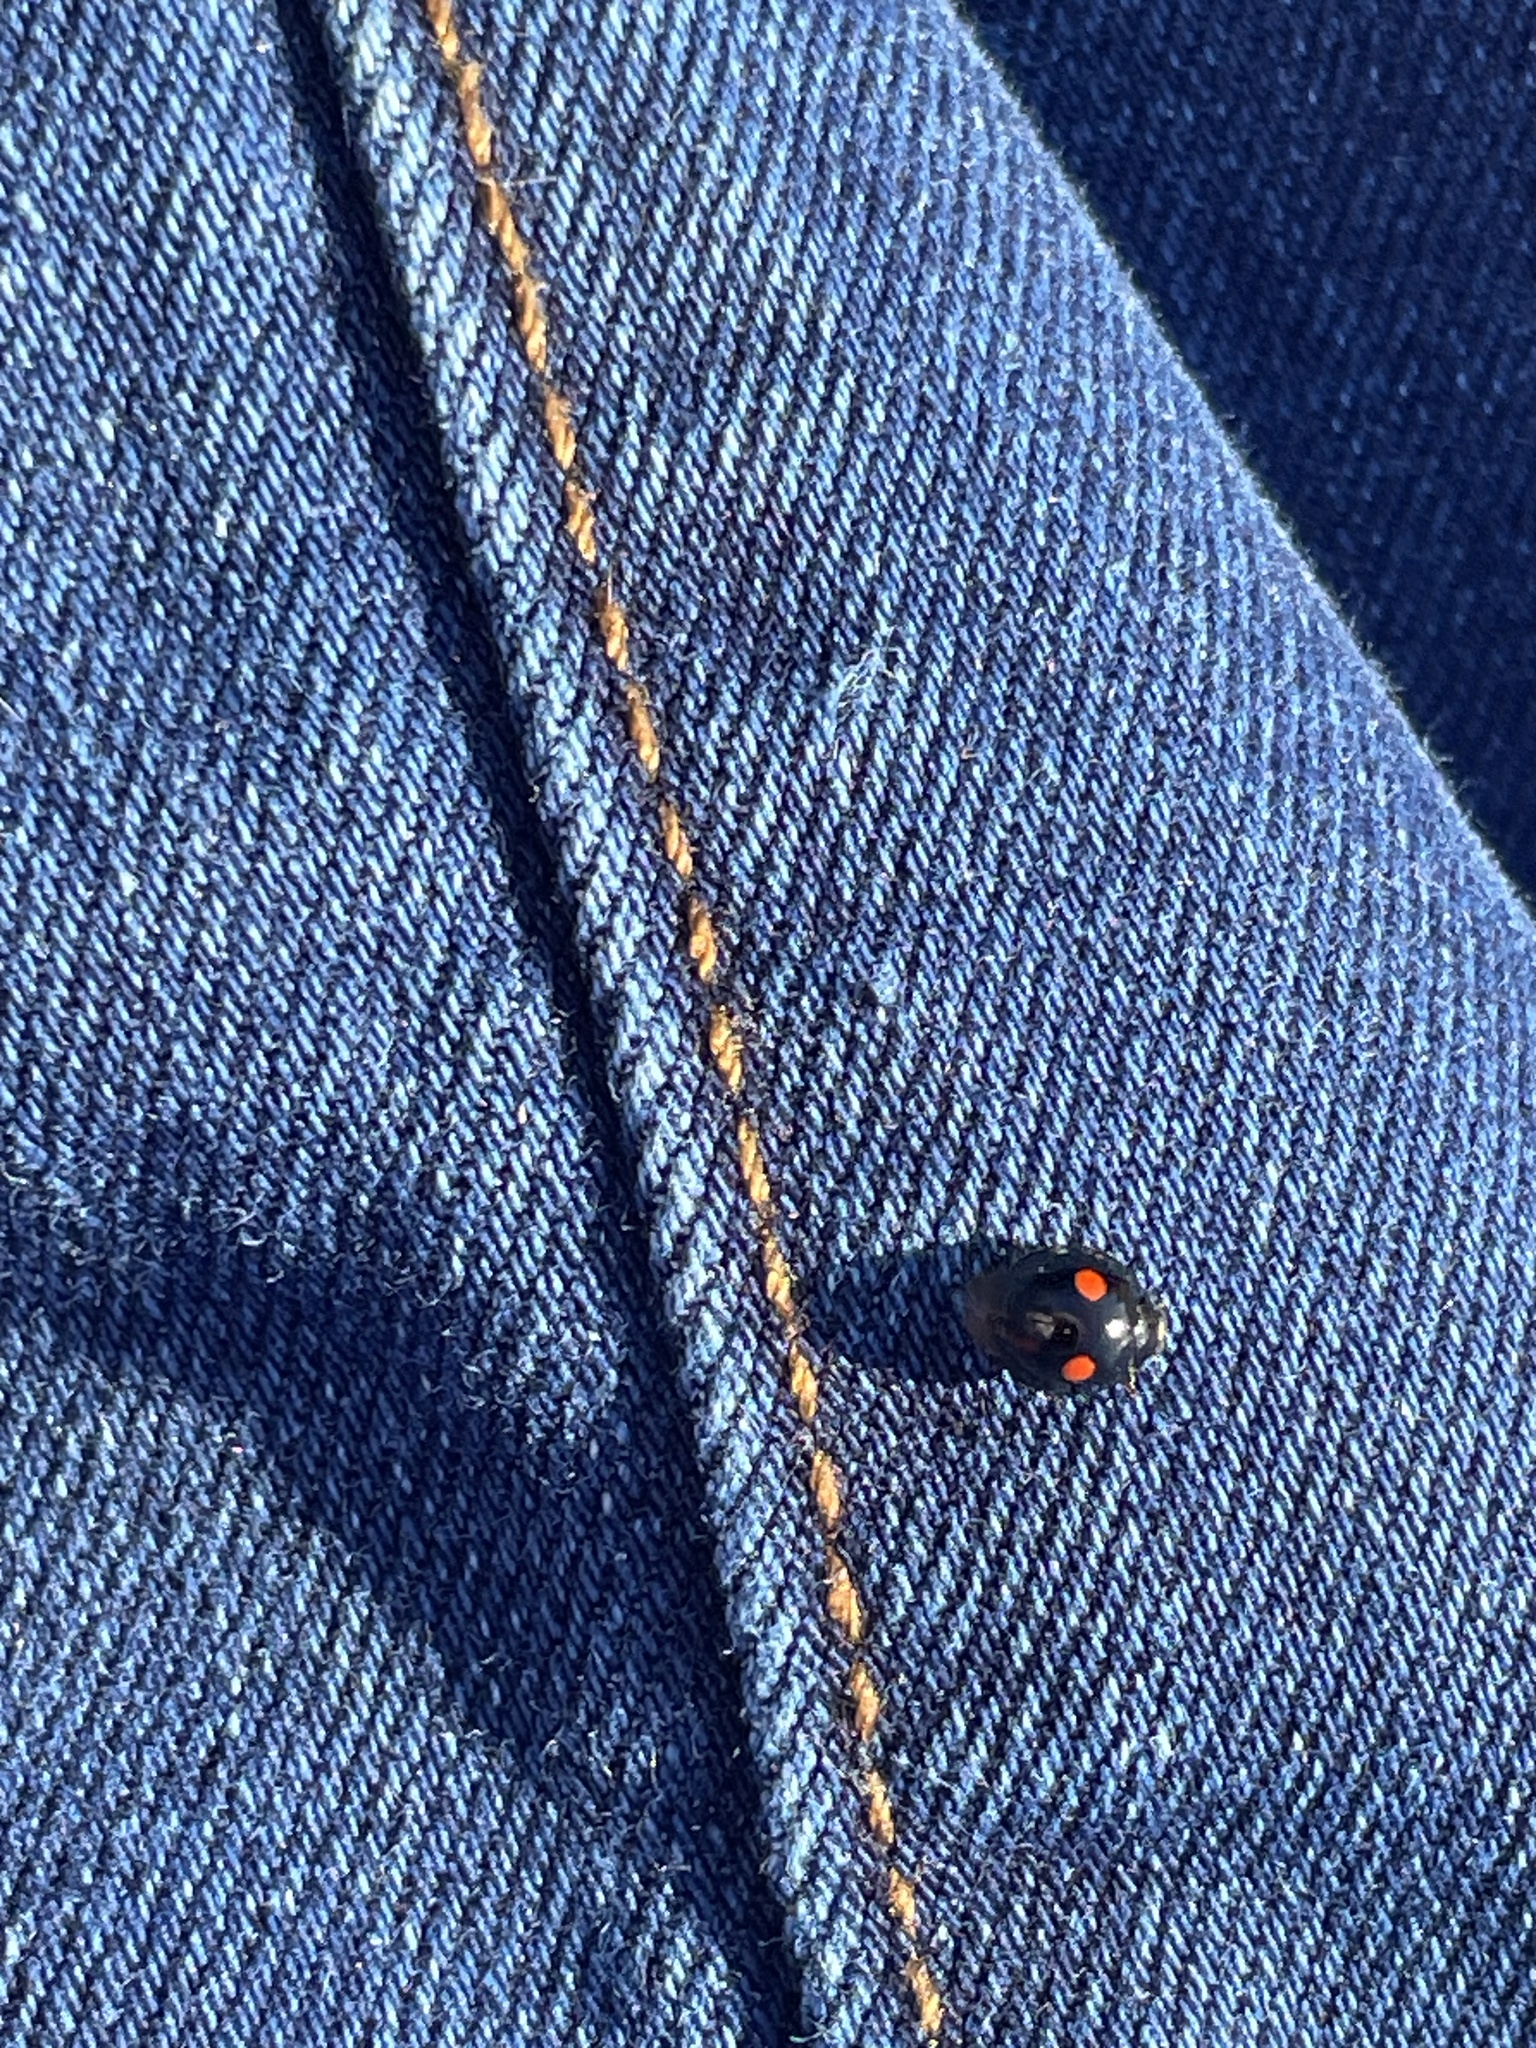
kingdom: Animalia
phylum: Arthropoda
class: Insecta
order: Coleoptera
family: Coccinellidae
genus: Chilocorus
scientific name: Chilocorus stigma
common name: Twicestabbed lady beetle
